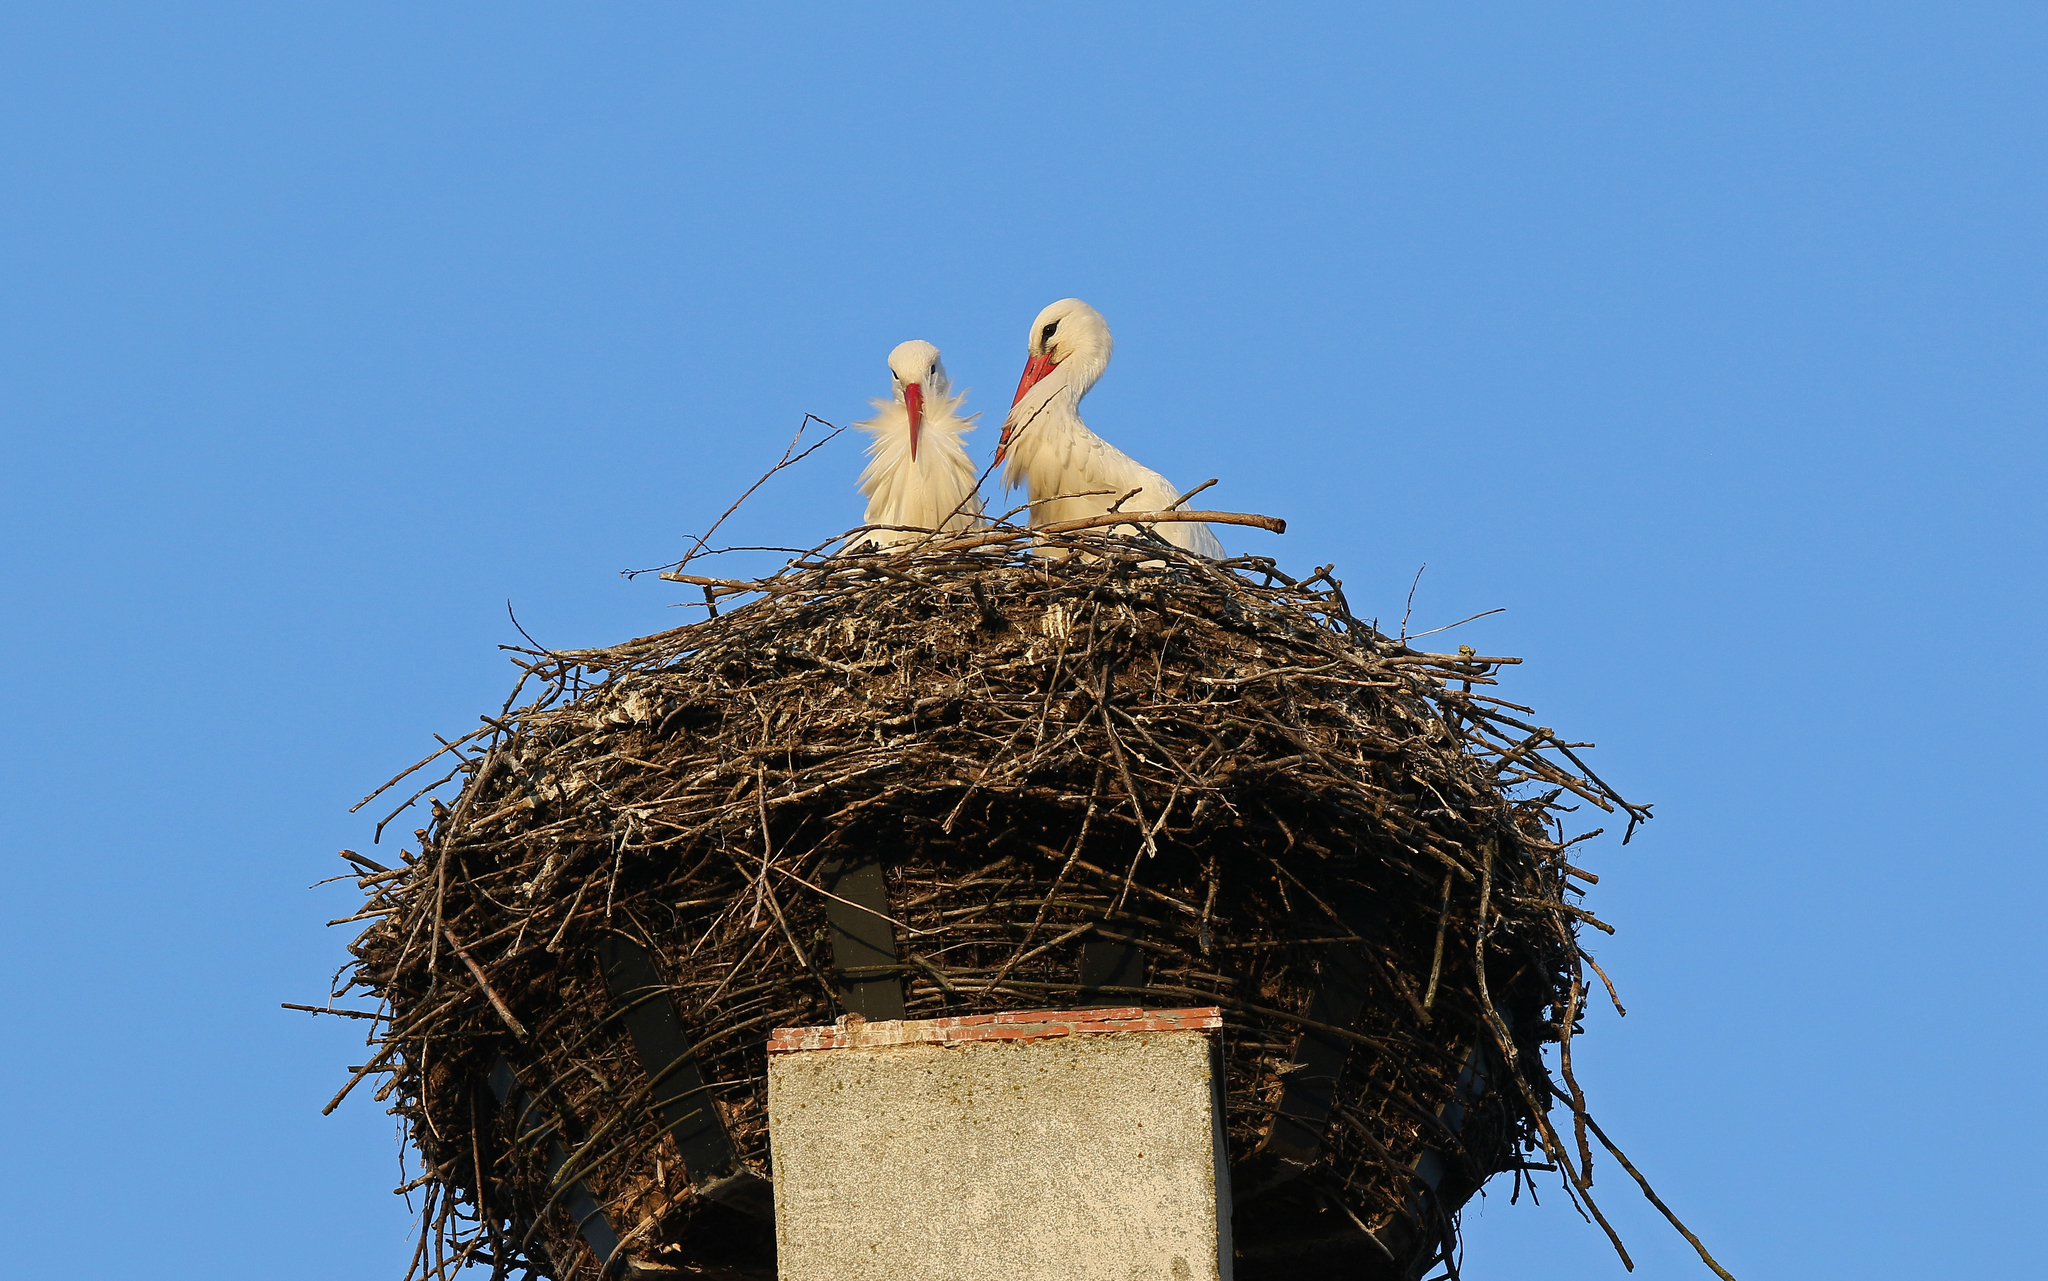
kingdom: Animalia
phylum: Chordata
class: Aves
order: Ciconiiformes
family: Ciconiidae
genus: Ciconia
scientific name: Ciconia ciconia
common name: White stork
